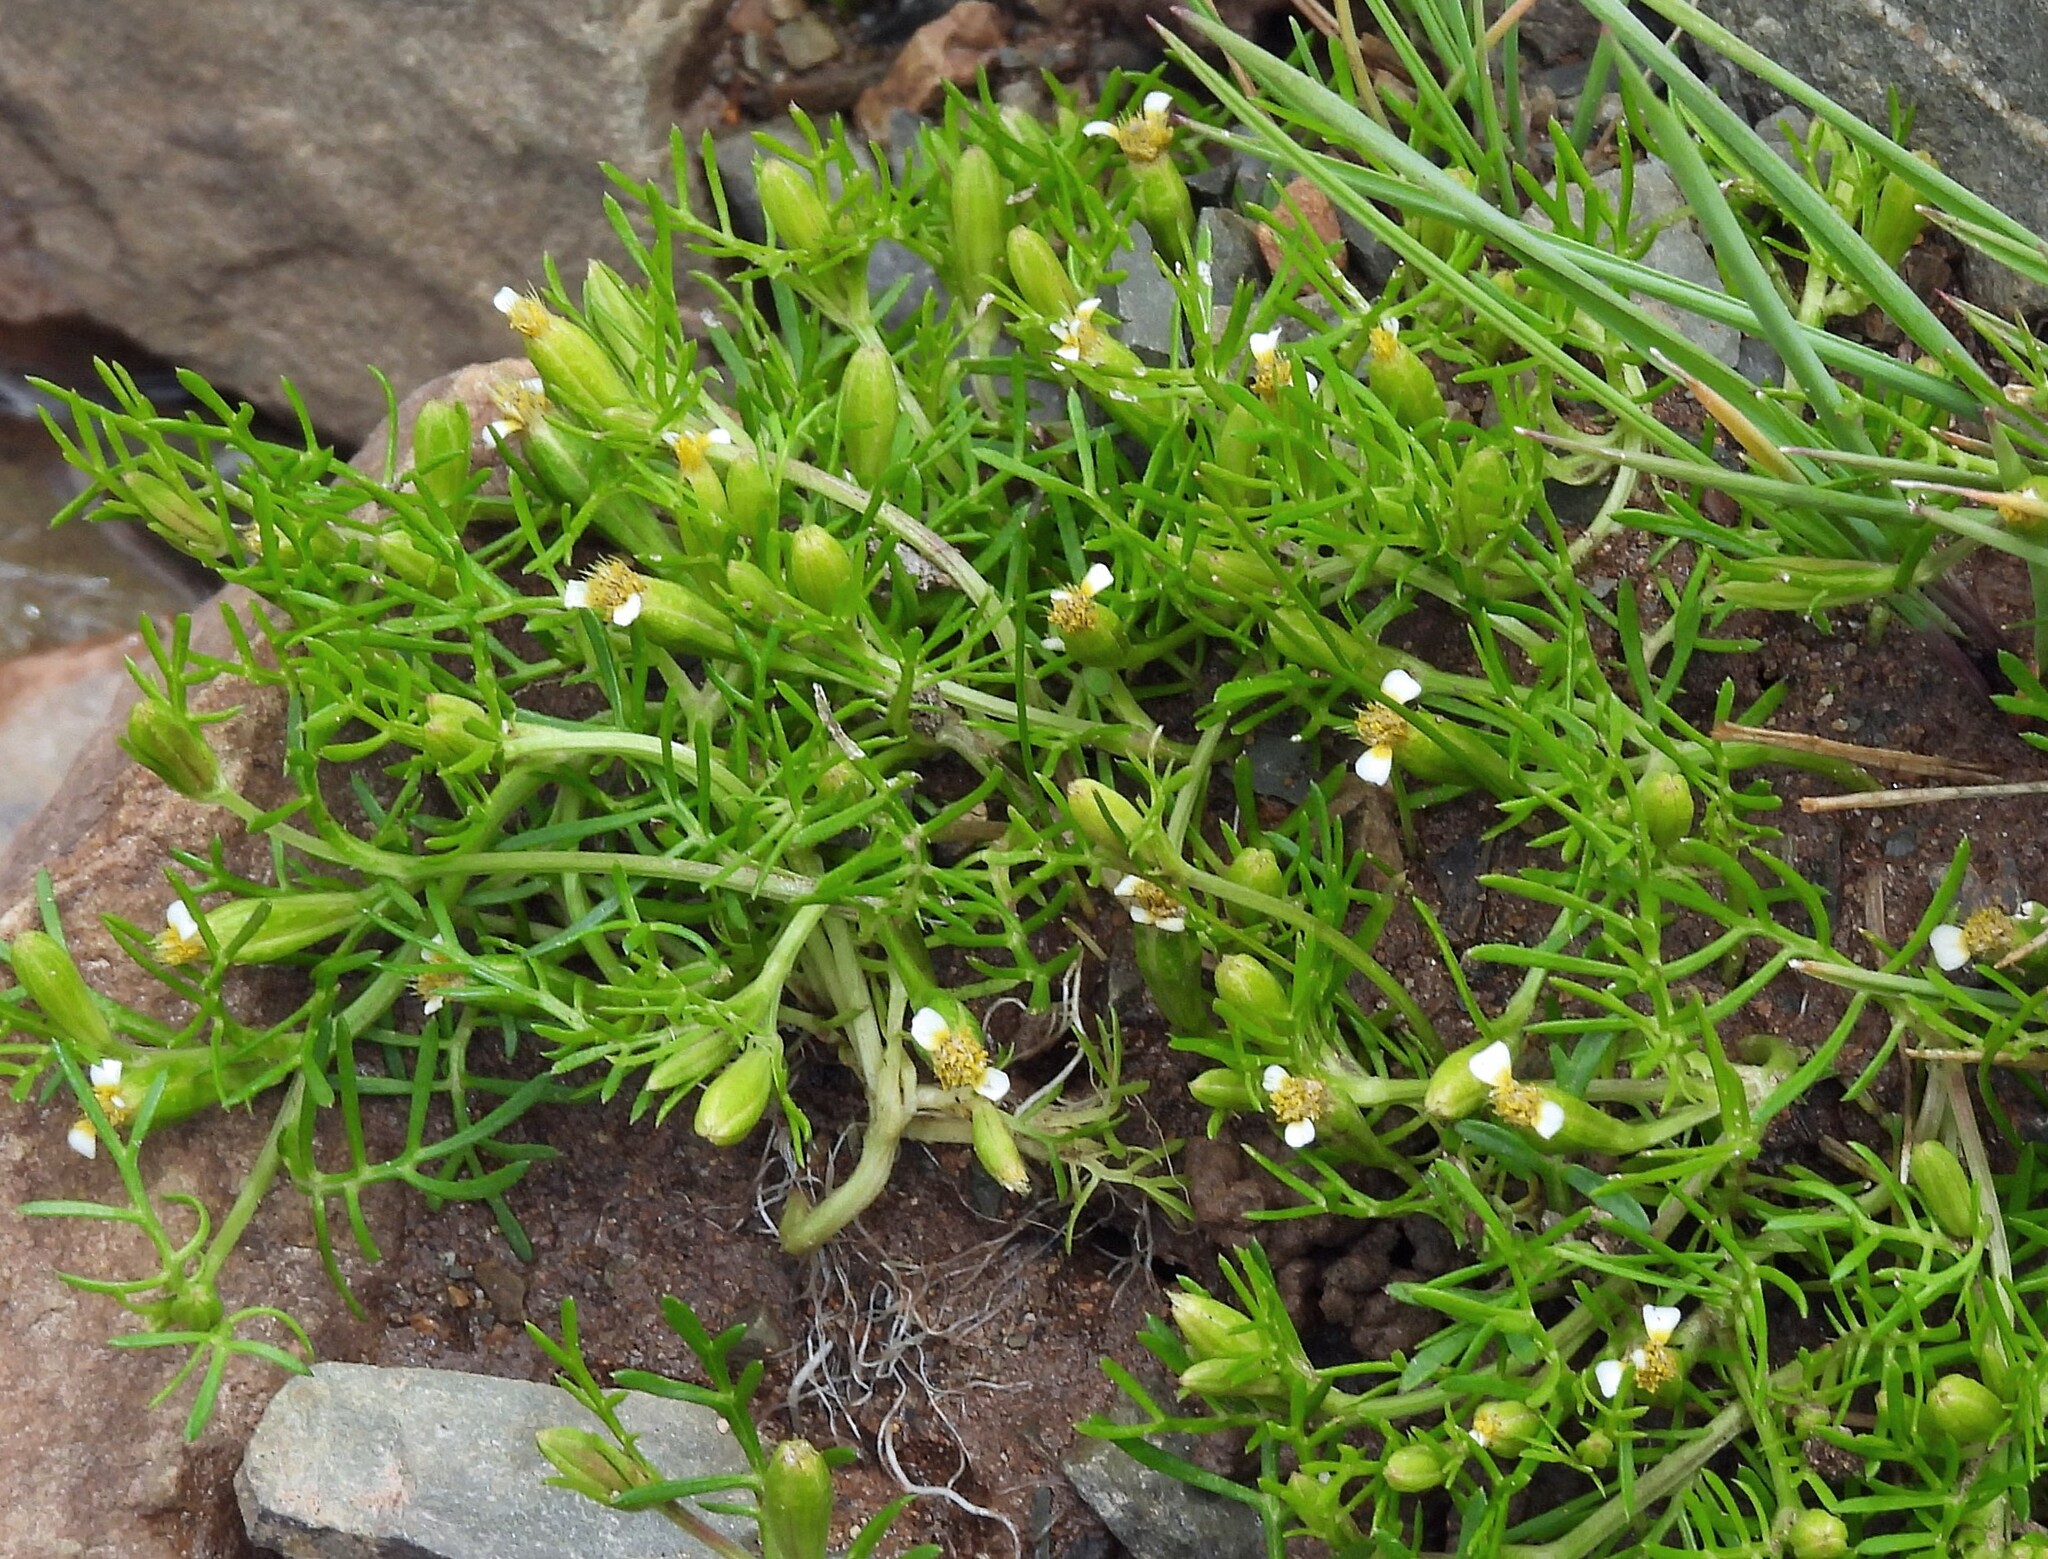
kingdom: Plantae
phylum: Tracheophyta
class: Magnoliopsida
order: Asterales
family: Asteraceae
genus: Tagetes
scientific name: Tagetes filifolia
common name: Lesser marigold
